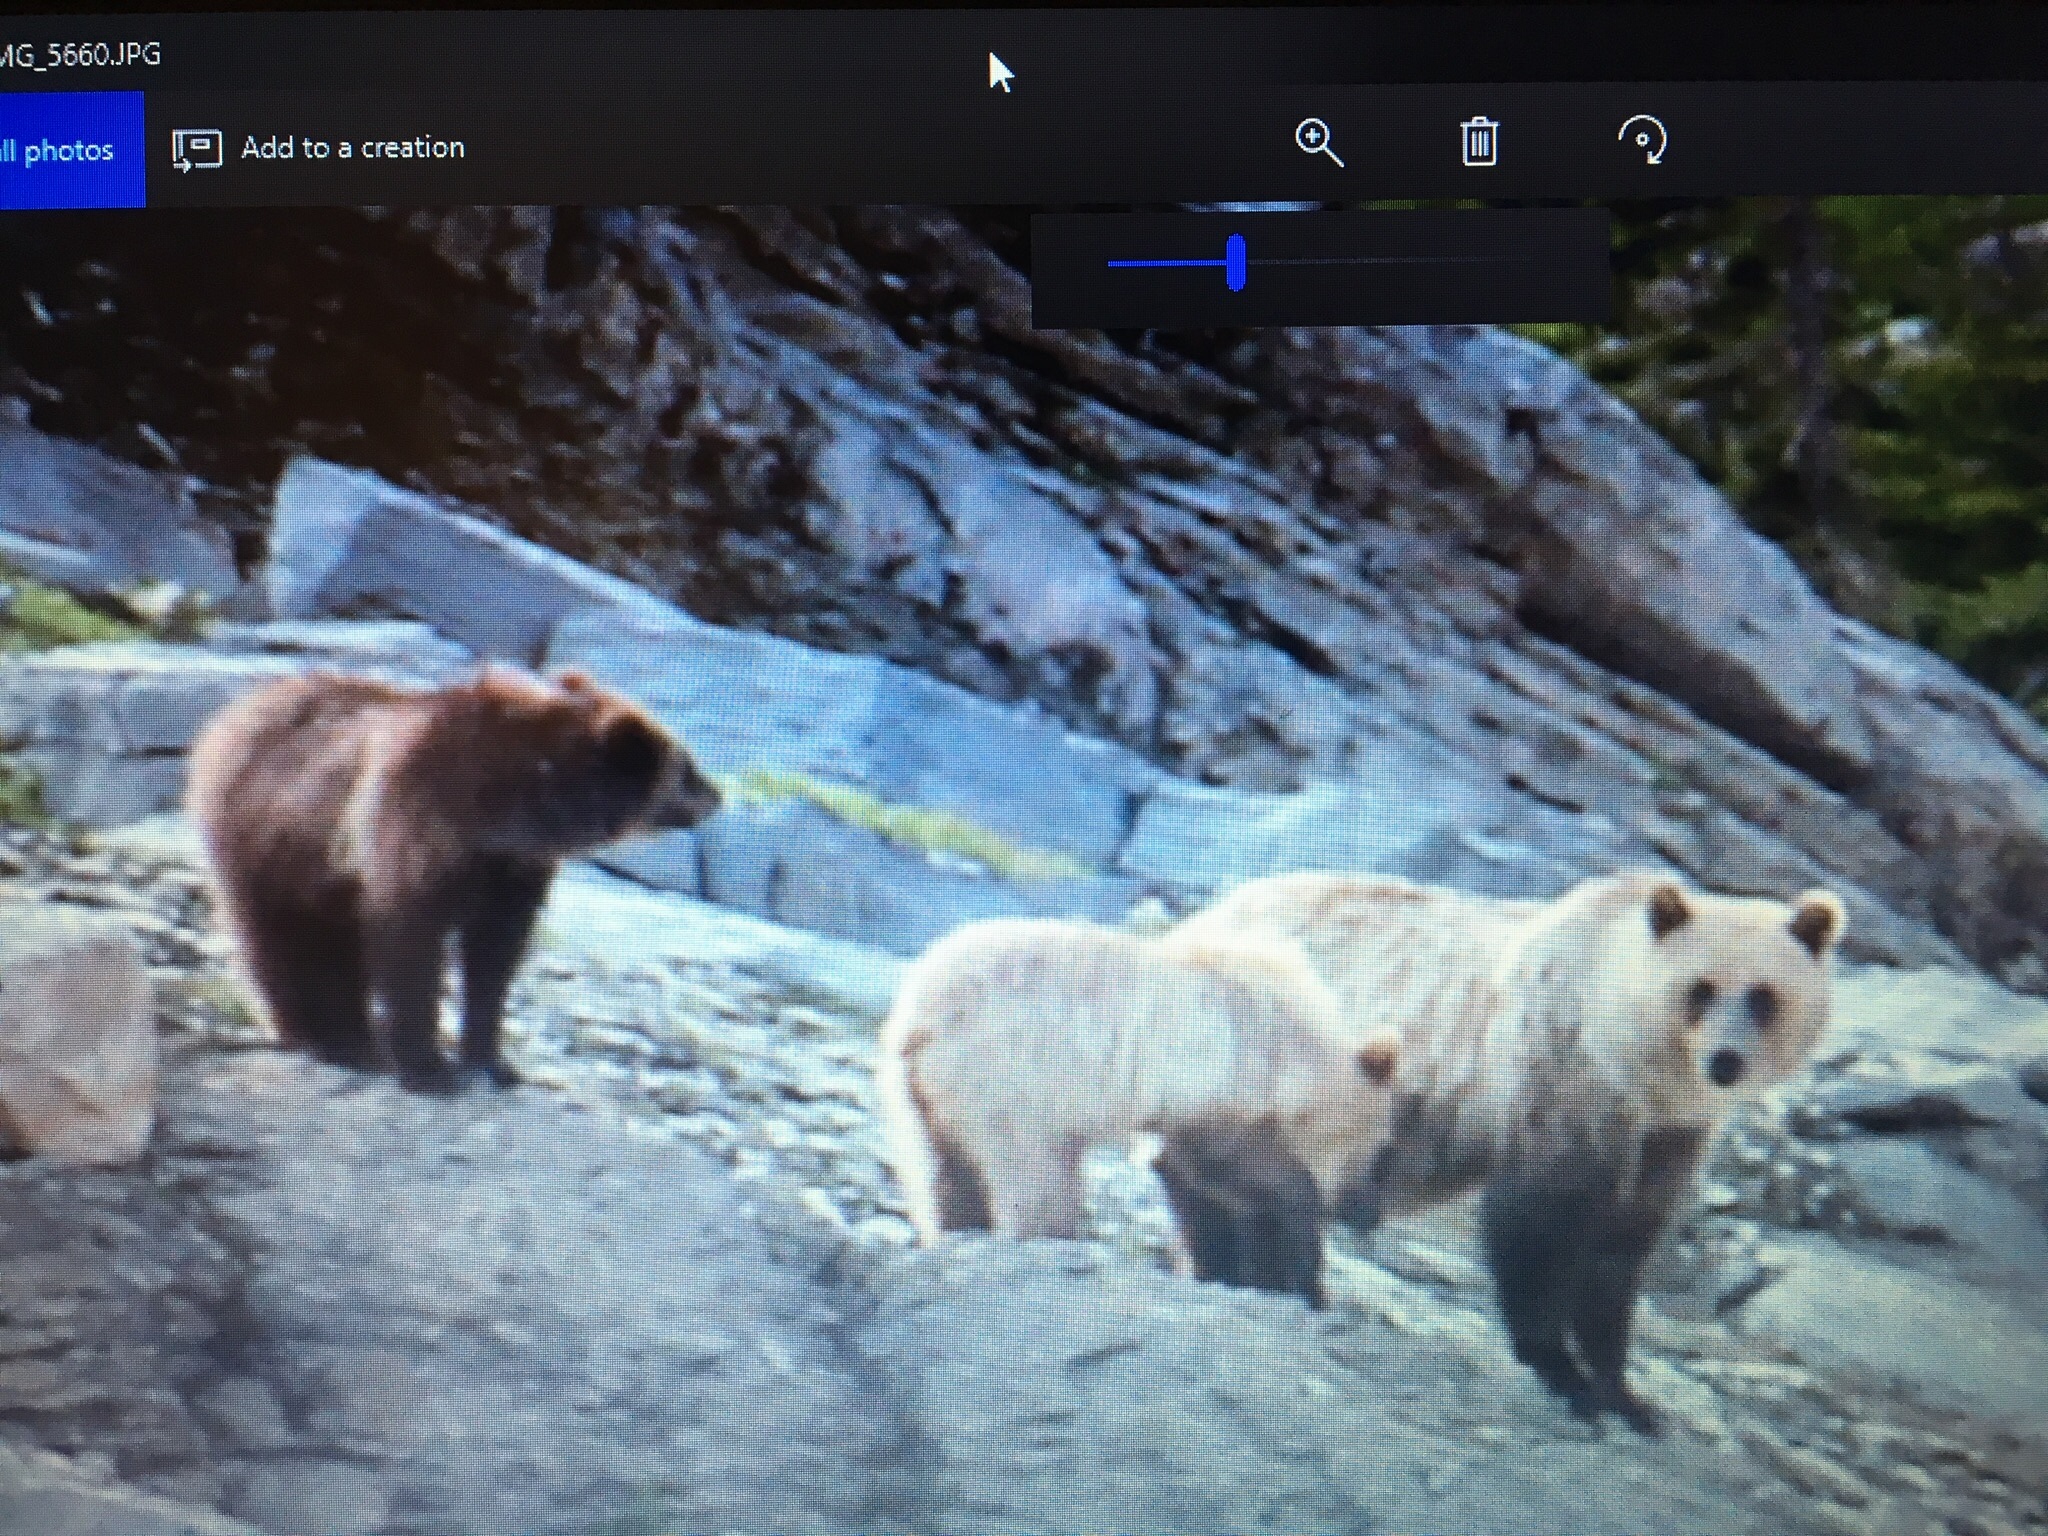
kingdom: Animalia
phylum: Chordata
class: Mammalia
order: Carnivora
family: Ursidae
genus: Ursus
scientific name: Ursus arctos
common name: Brown bear
